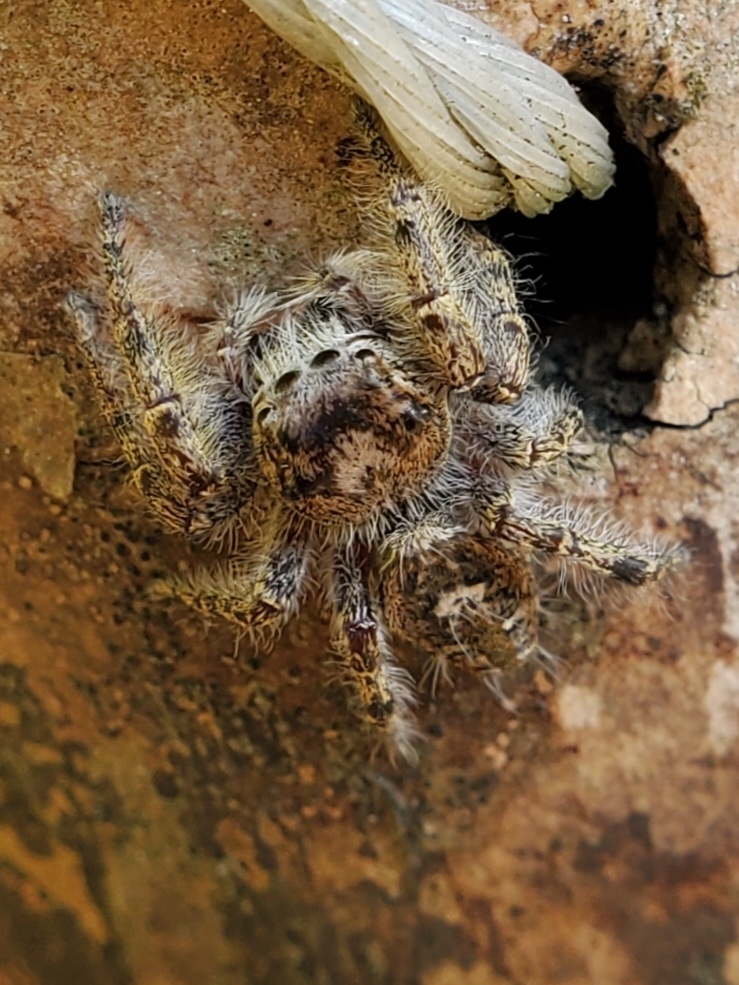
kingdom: Animalia
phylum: Arthropoda
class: Arachnida
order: Araneae
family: Salticidae
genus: Phidippus
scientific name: Phidippus putnami
